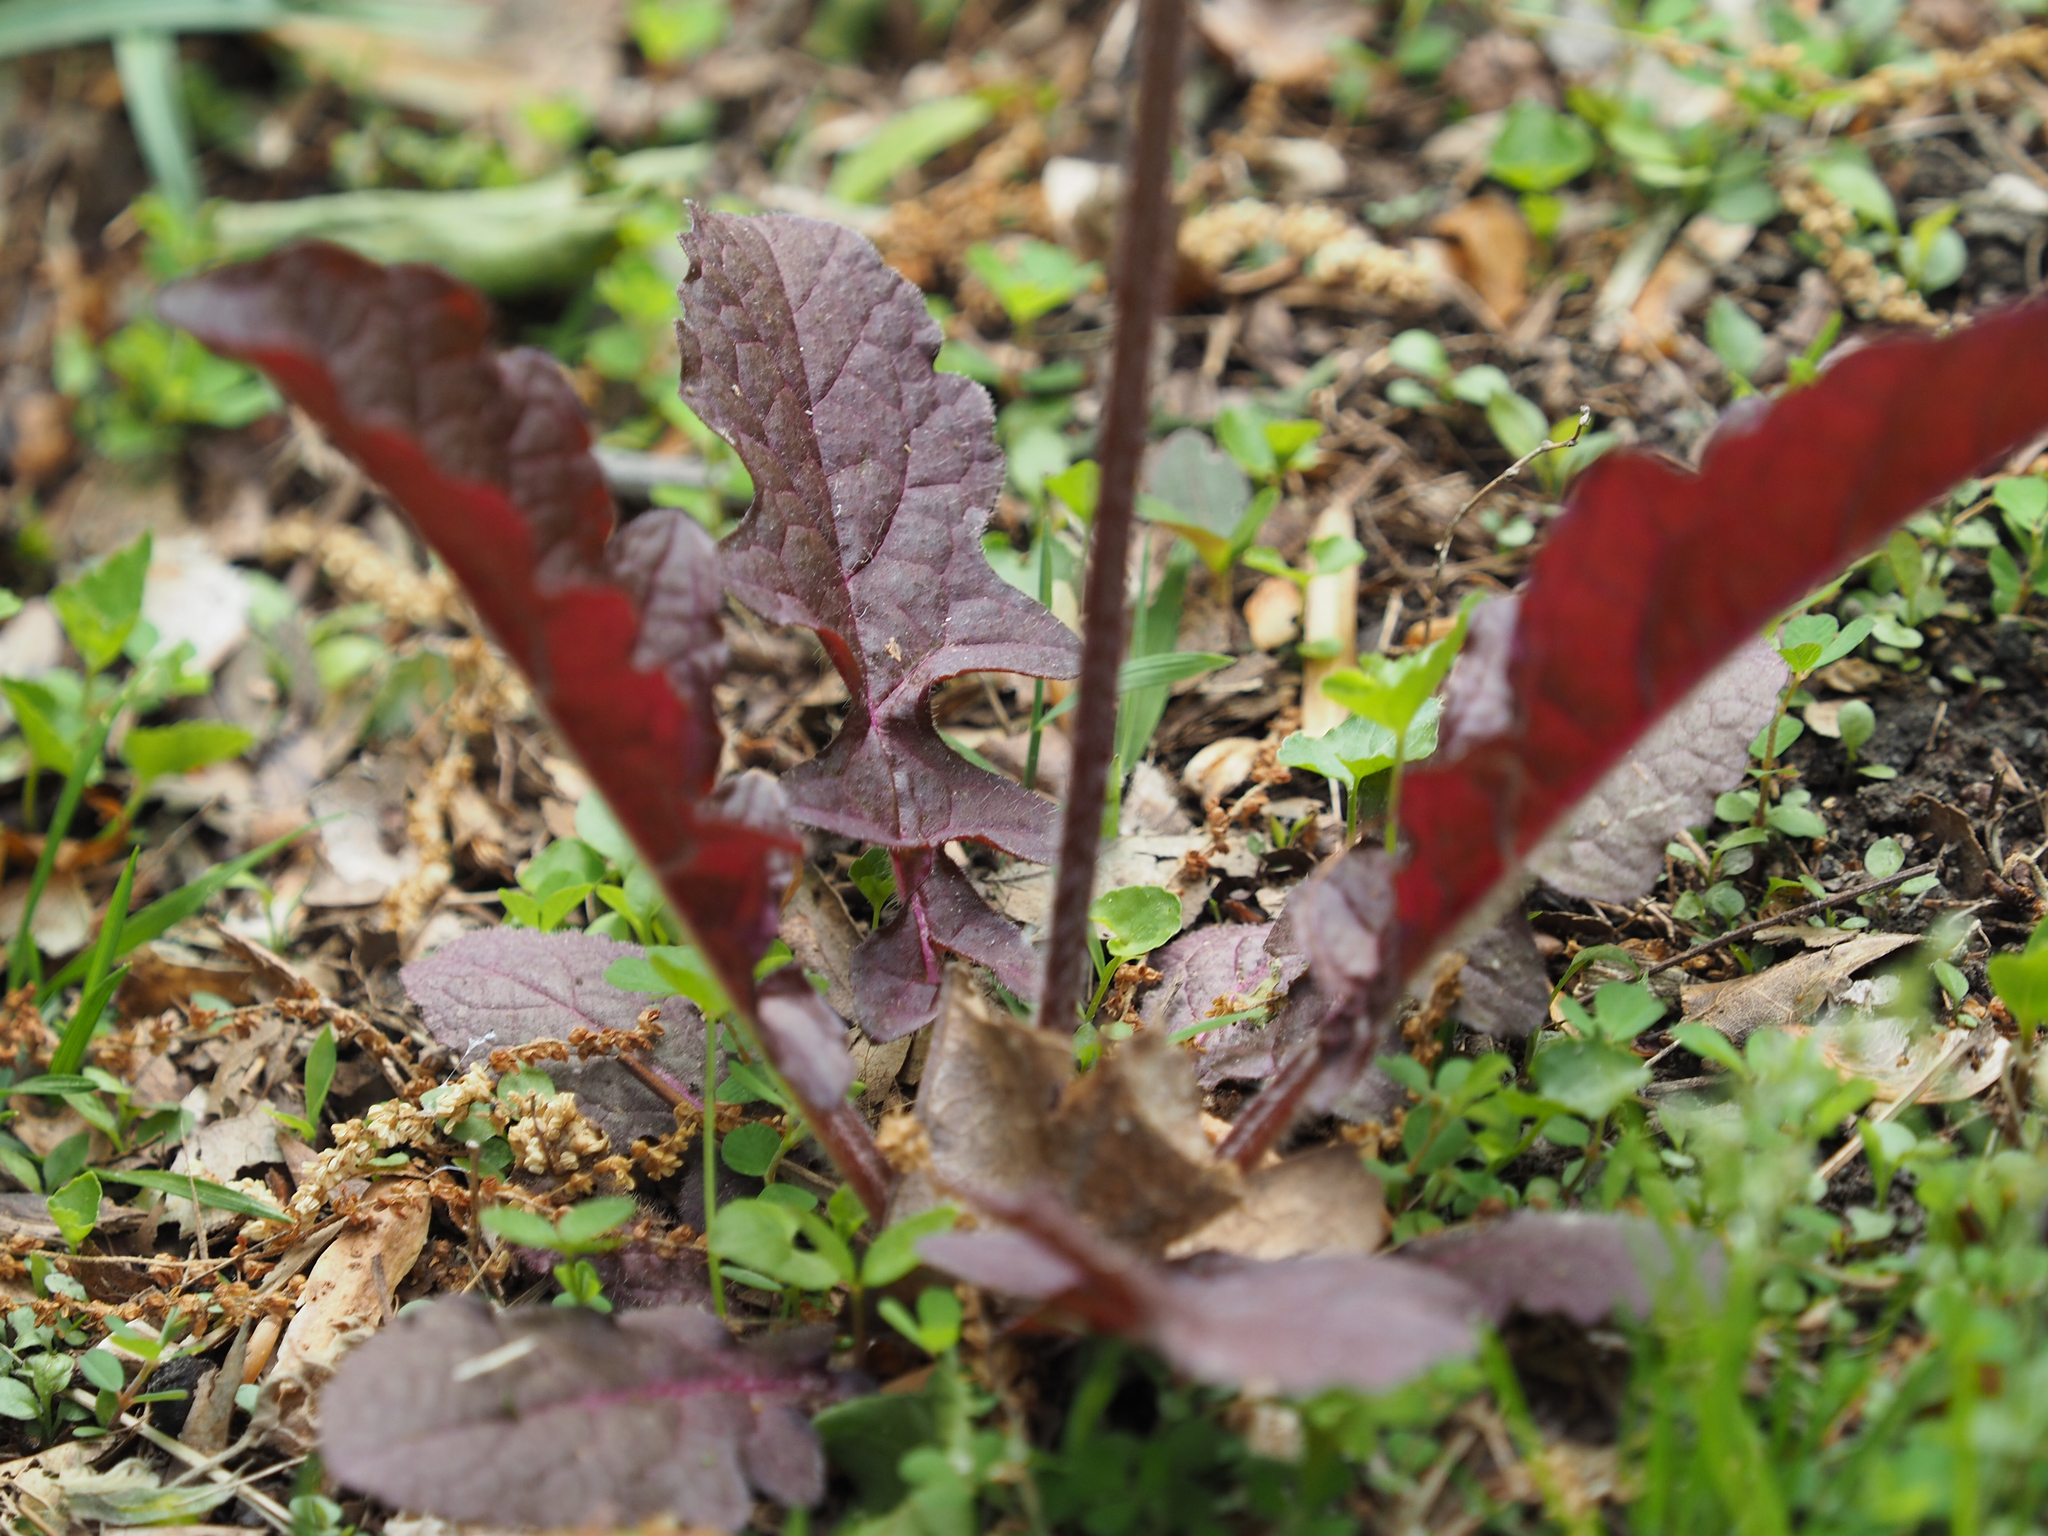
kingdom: Plantae
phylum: Tracheophyta
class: Magnoliopsida
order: Lamiales
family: Lamiaceae
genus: Salvia
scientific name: Salvia lyrata
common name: Cancerweed
